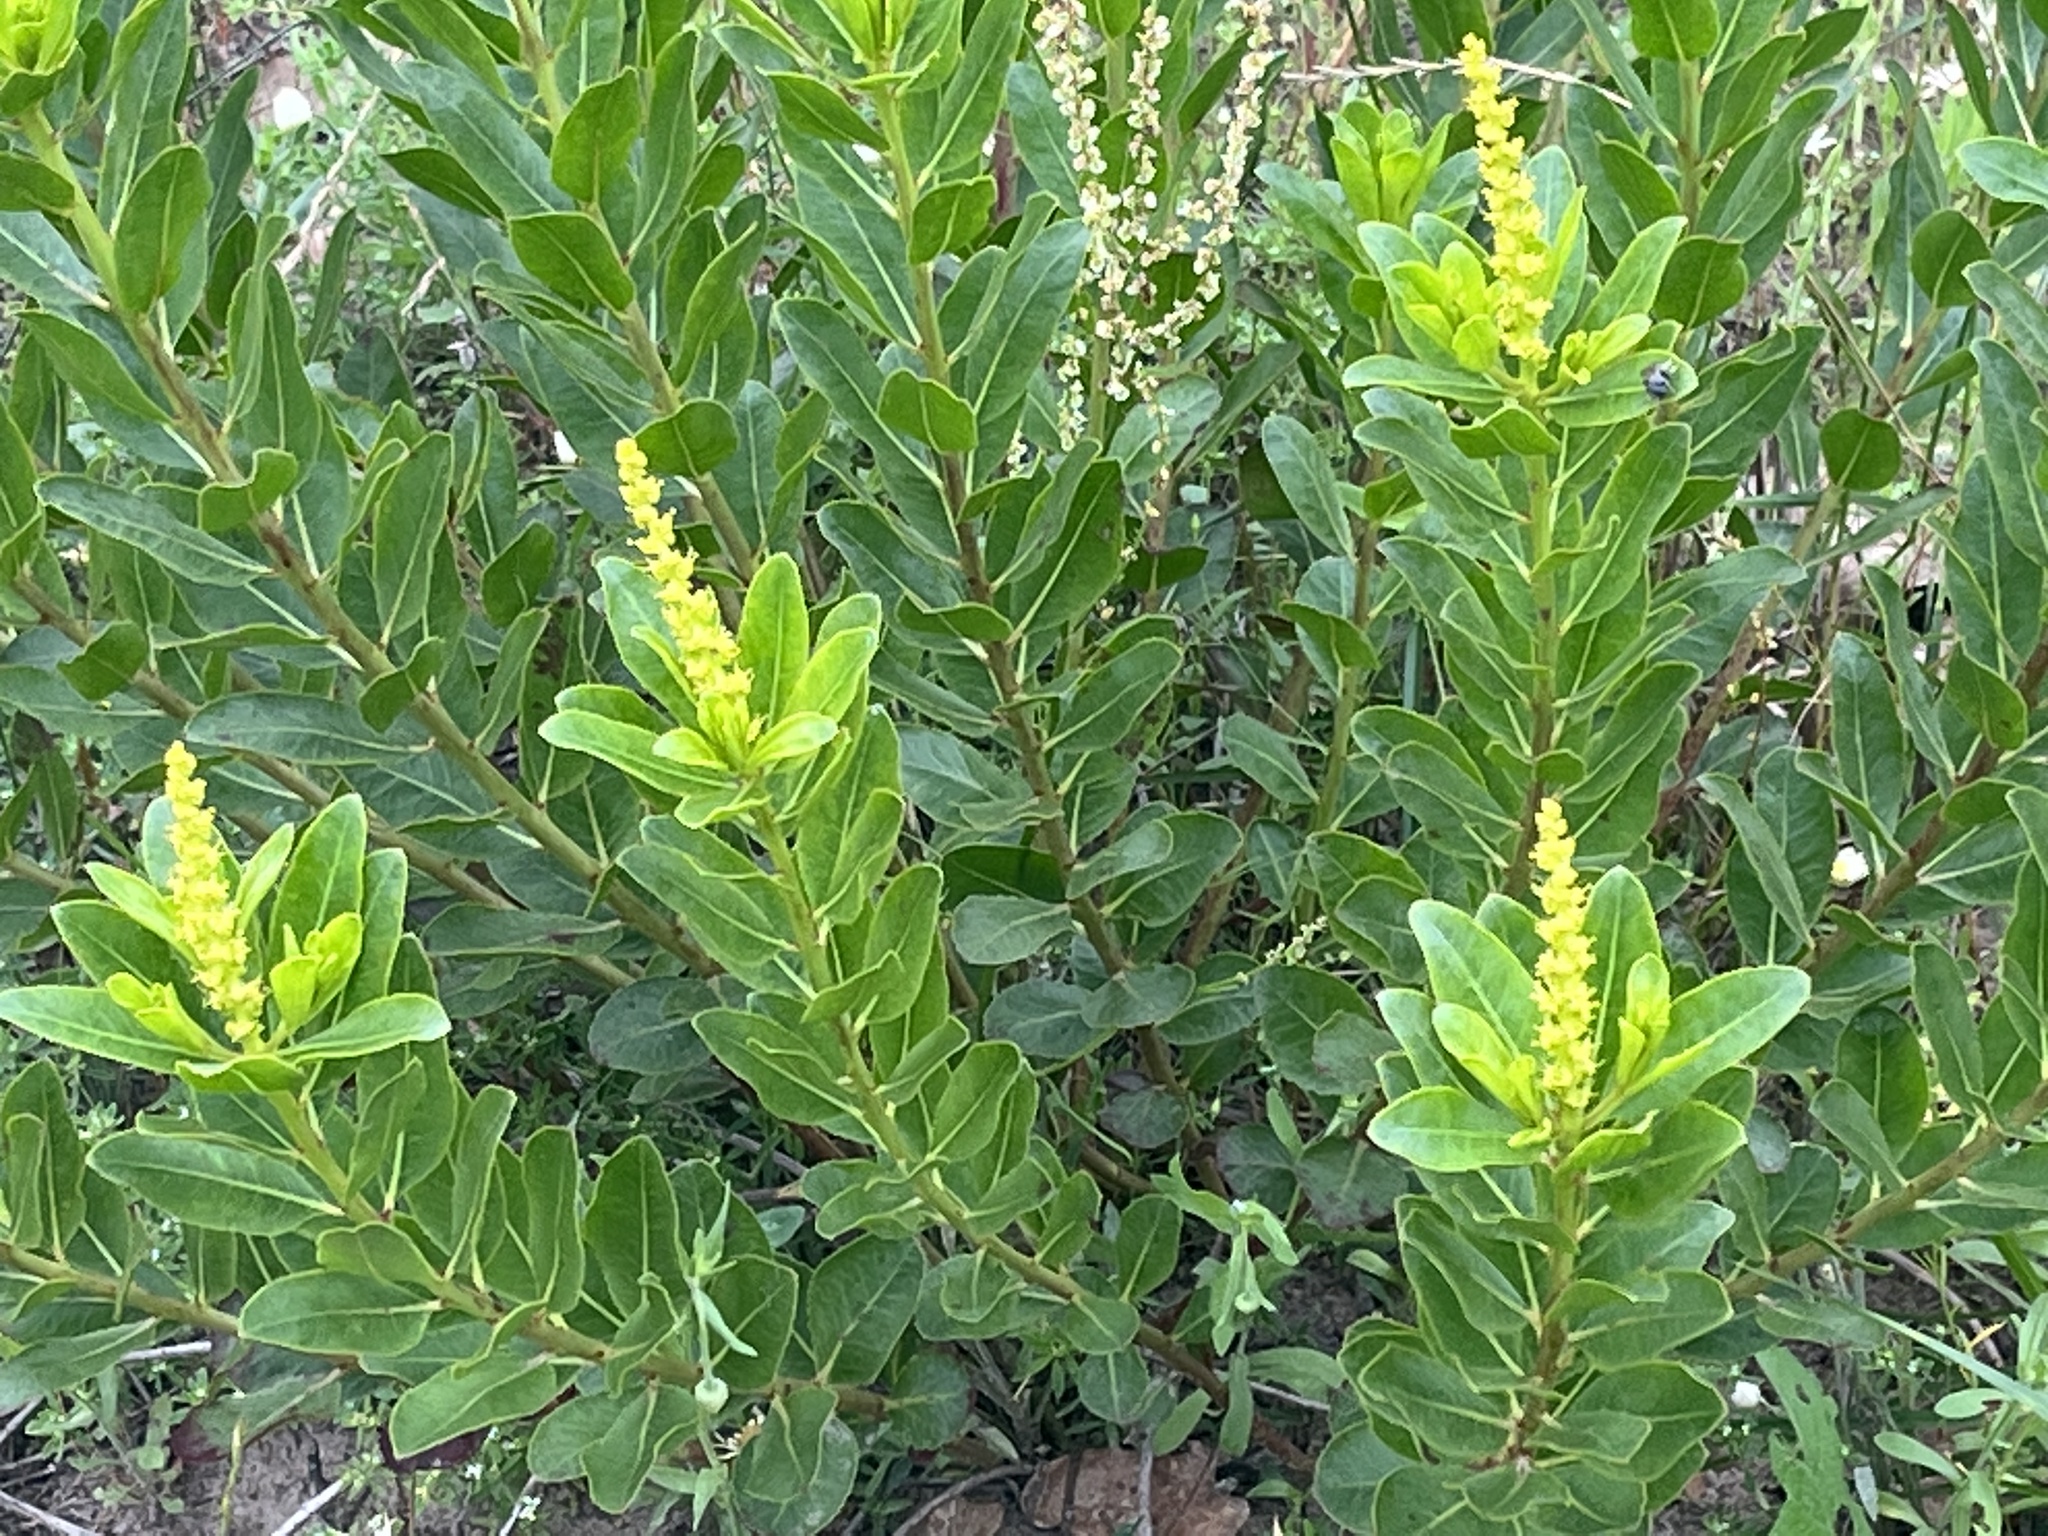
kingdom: Plantae
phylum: Tracheophyta
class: Magnoliopsida
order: Malpighiales
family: Euphorbiaceae
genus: Stillingia
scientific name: Stillingia sylvatica
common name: Queen's-delight
